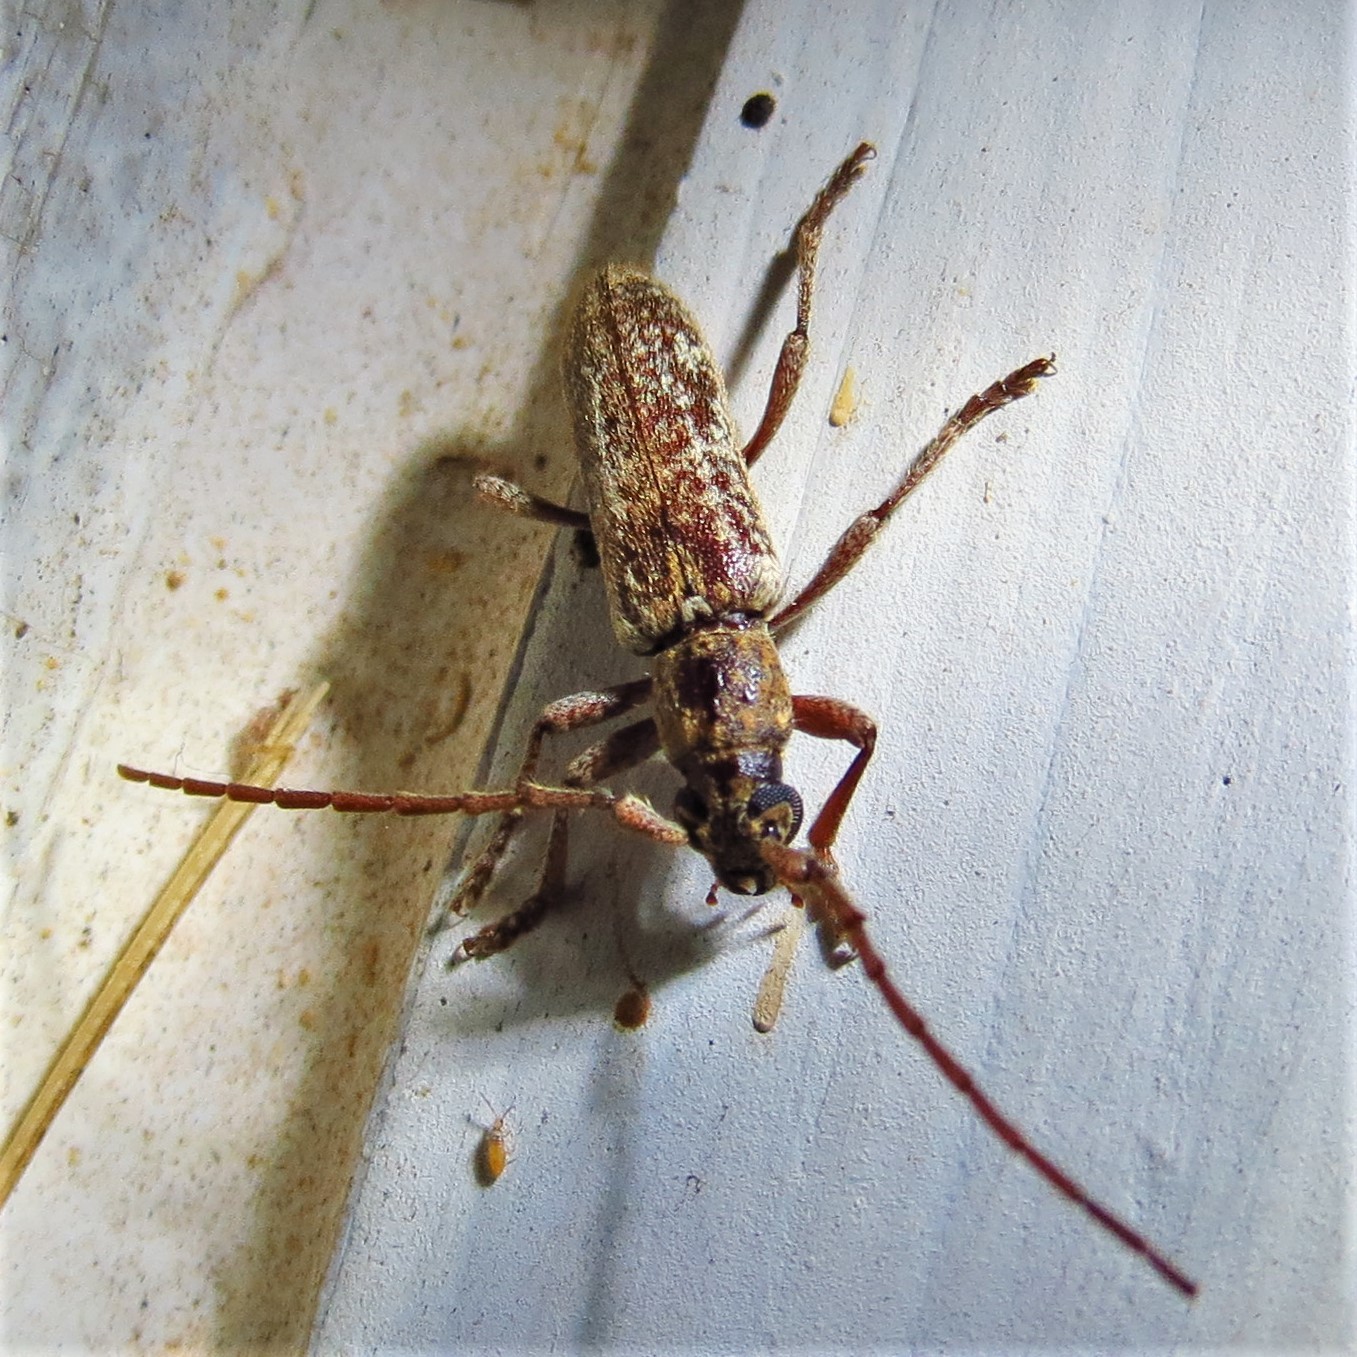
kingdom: Animalia
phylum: Arthropoda
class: Insecta
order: Coleoptera
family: Cerambycidae
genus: Anelaphus
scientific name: Anelaphus debilis
